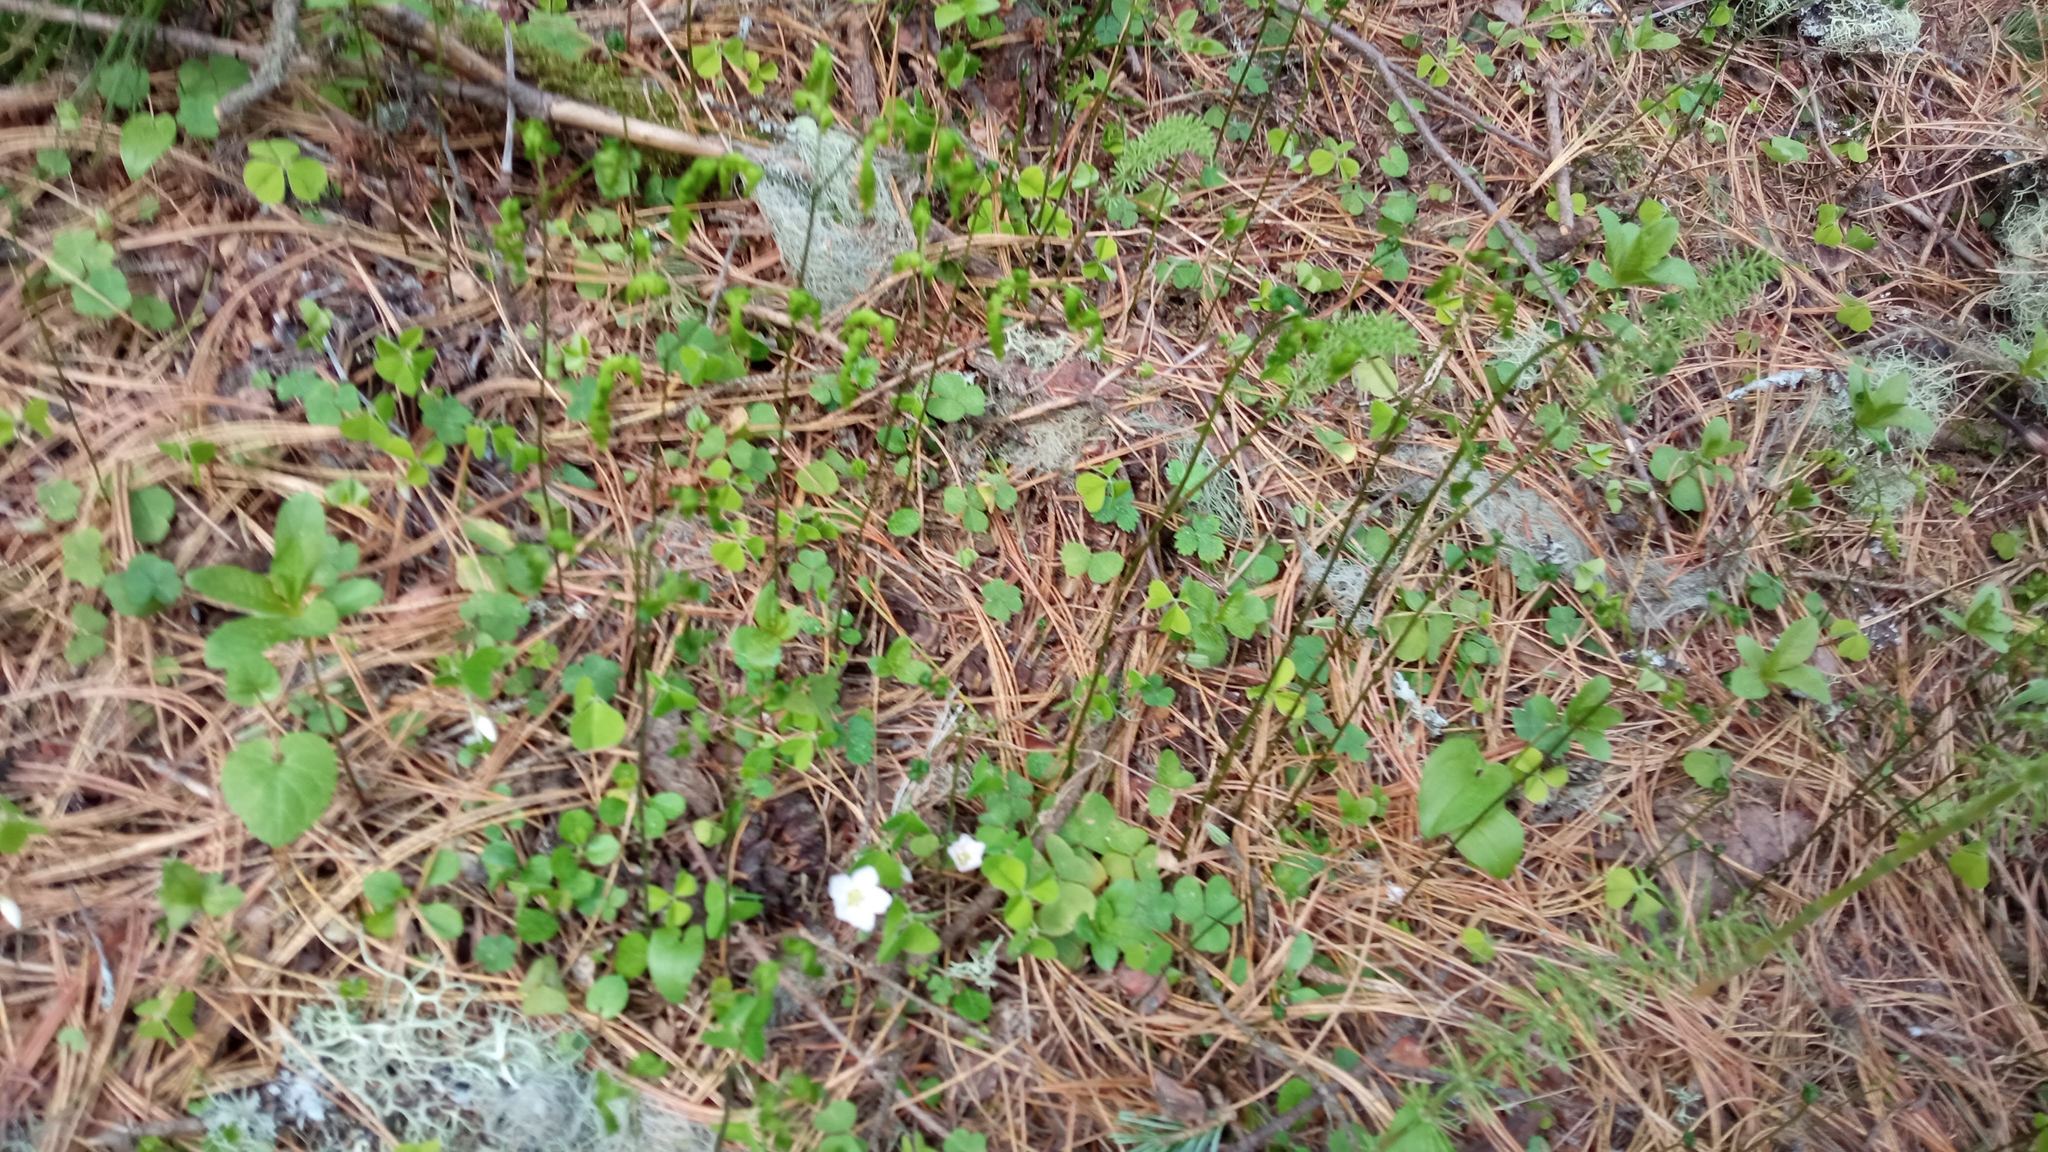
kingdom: Plantae
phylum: Tracheophyta
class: Polypodiopsida
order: Polypodiales
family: Cystopteridaceae
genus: Gymnocarpium
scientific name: Gymnocarpium dryopteris
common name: Oak fern
